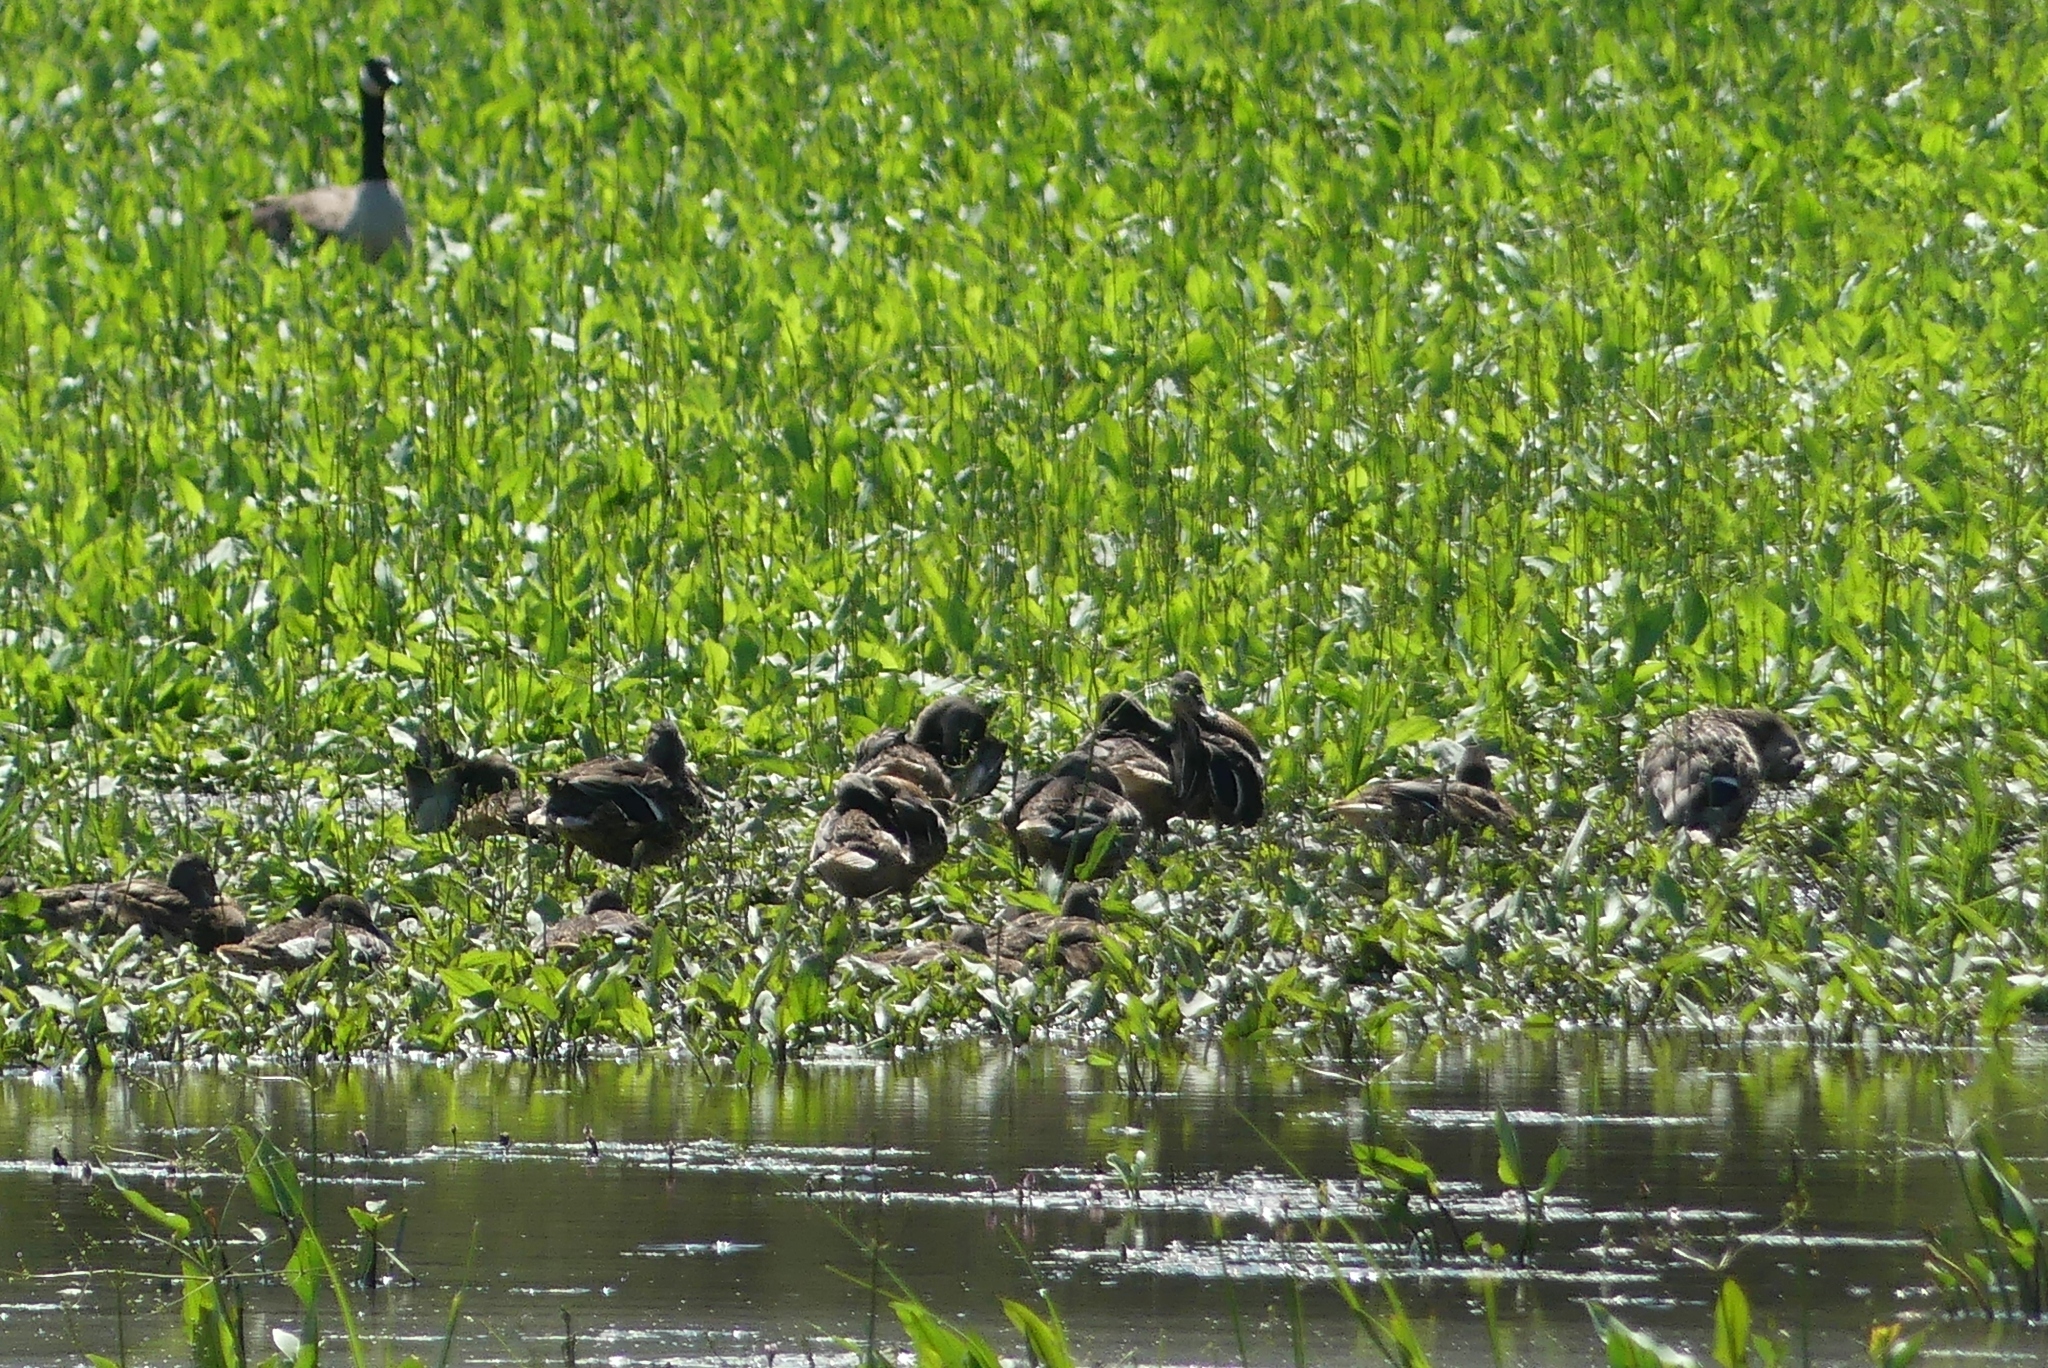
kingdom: Animalia
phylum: Chordata
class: Aves
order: Anseriformes
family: Anatidae
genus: Anas
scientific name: Anas platyrhynchos
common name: Mallard
